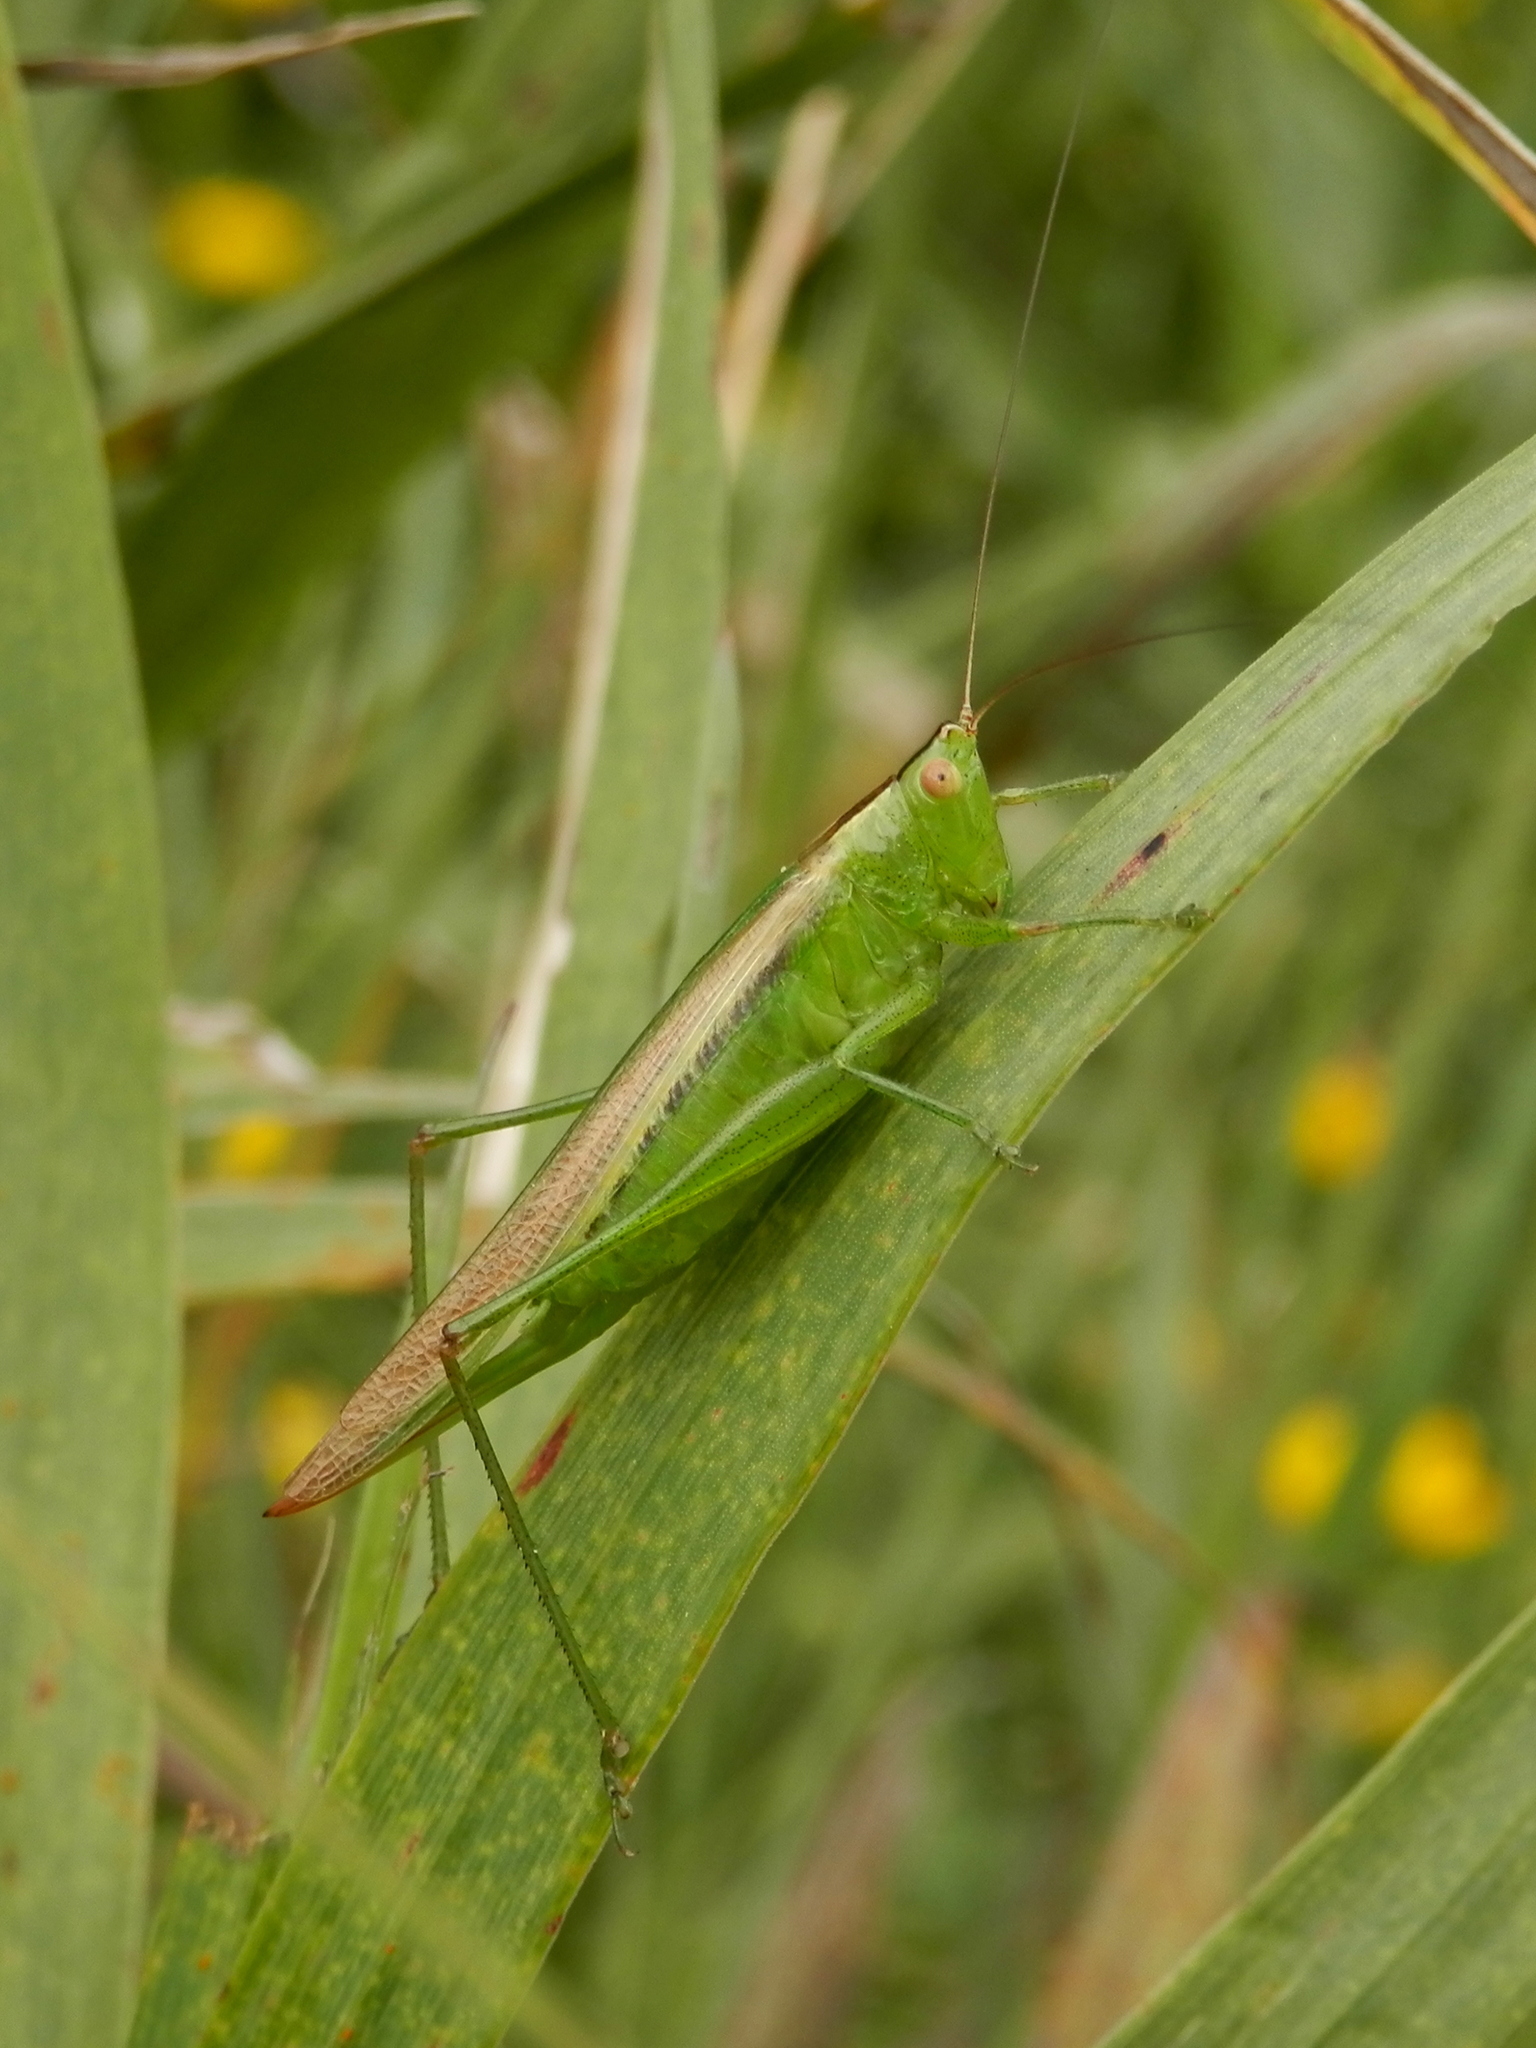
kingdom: Animalia
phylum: Arthropoda
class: Insecta
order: Orthoptera
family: Tettigoniidae
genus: Conocephalus
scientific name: Conocephalus fasciatus
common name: Slender meadow katydid
